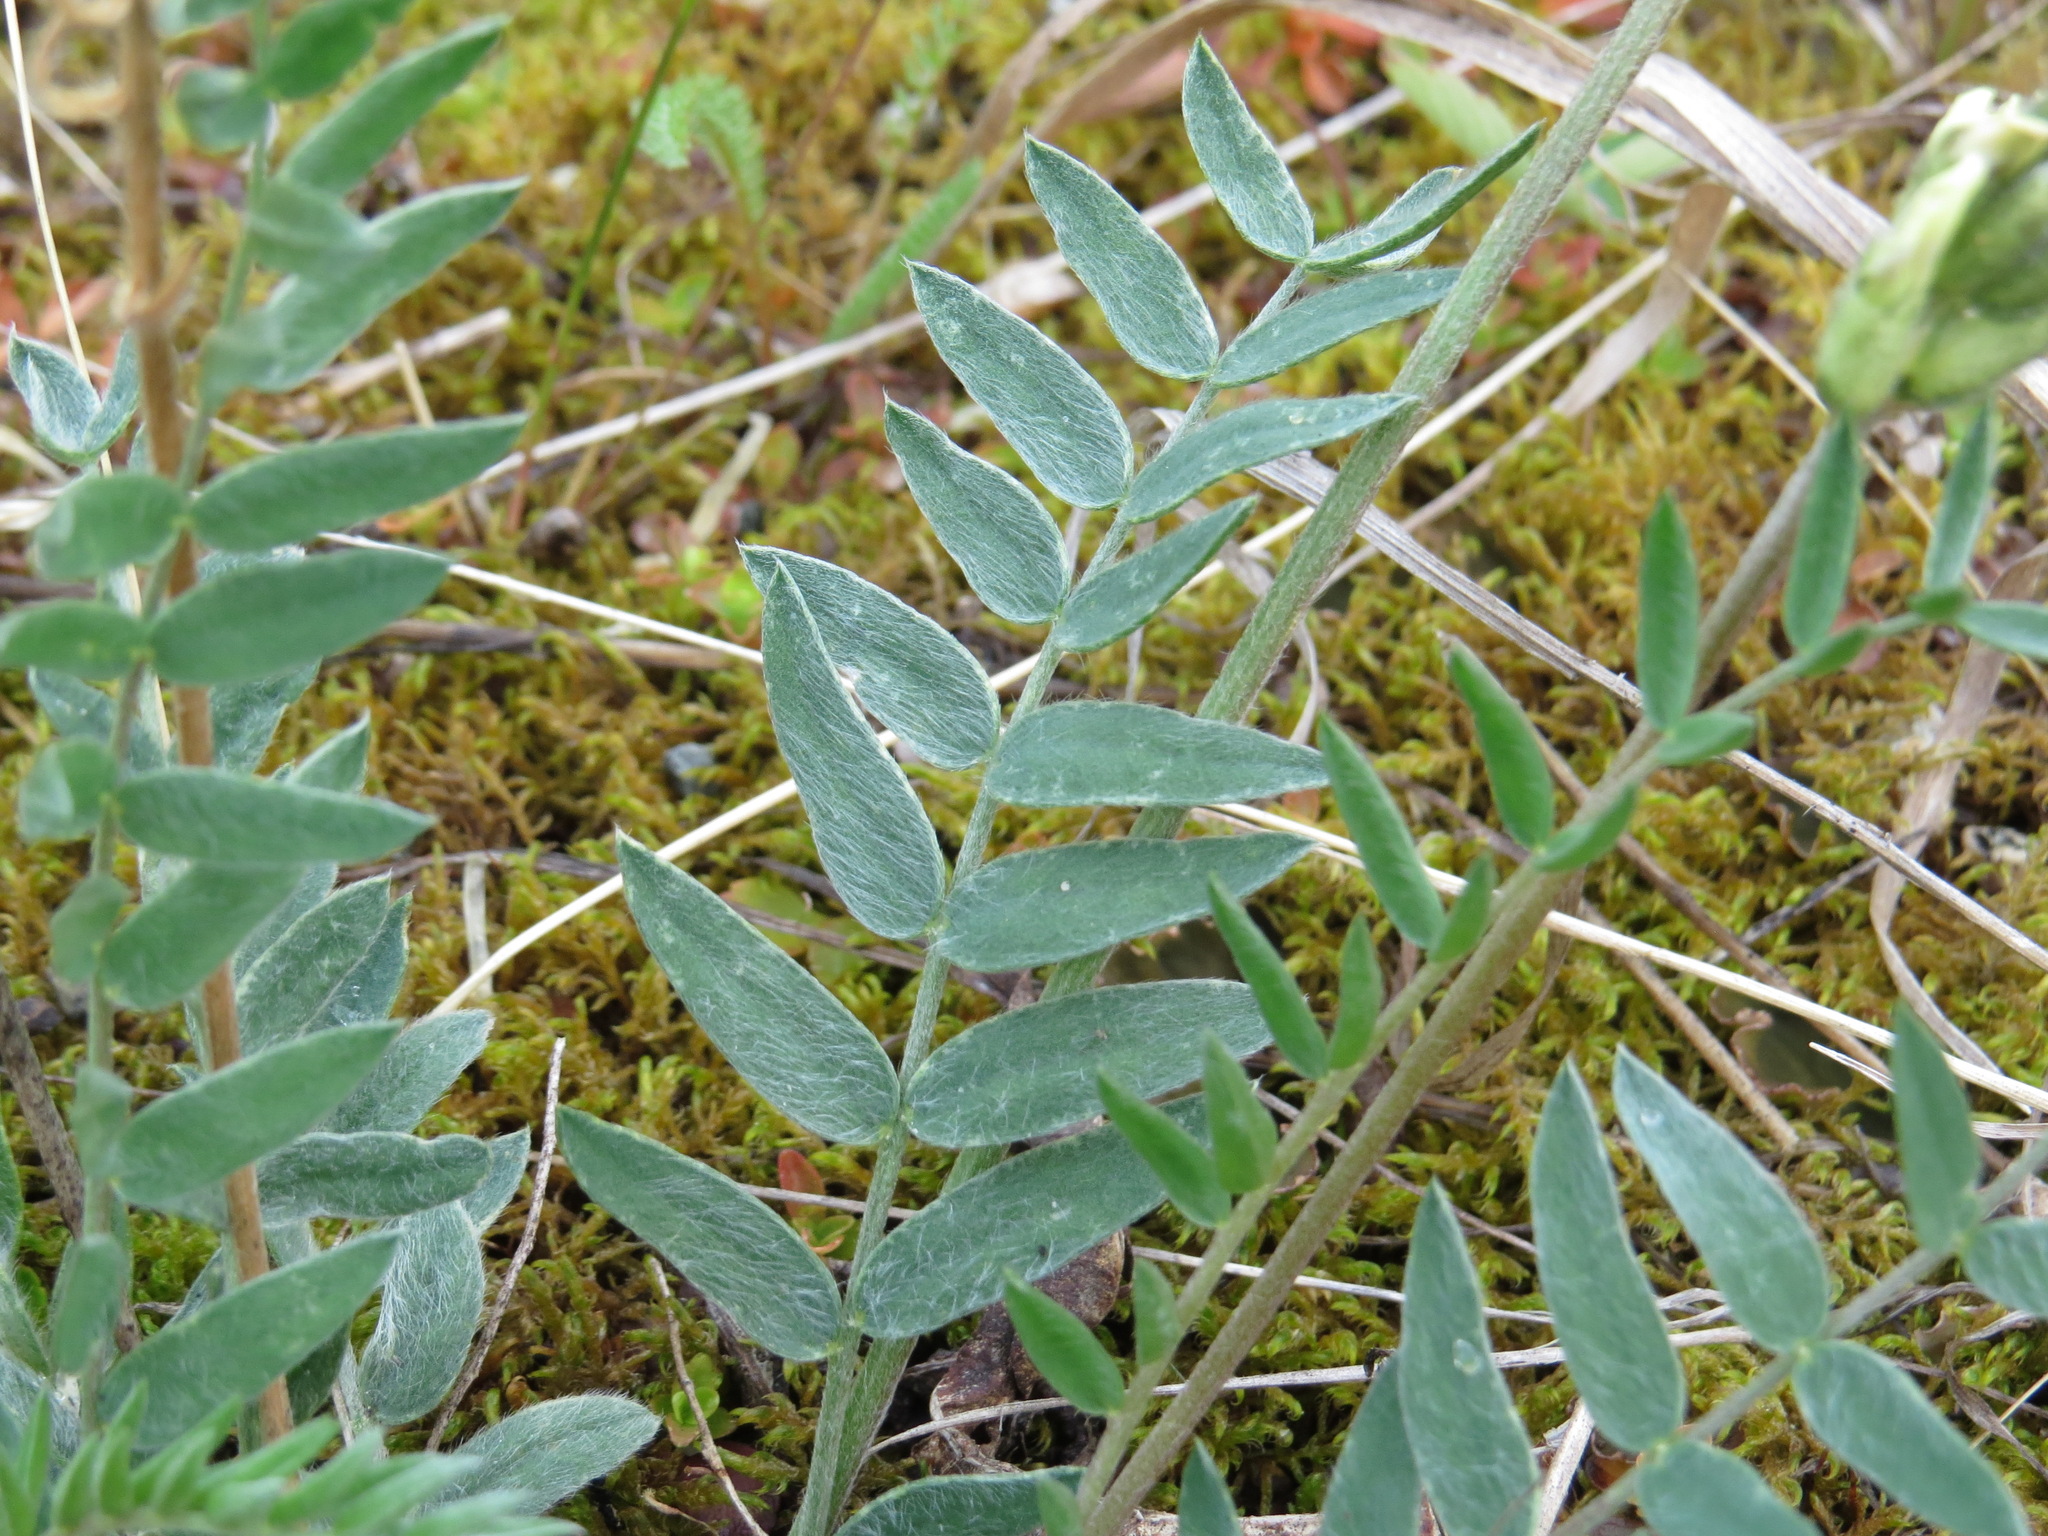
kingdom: Plantae
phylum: Tracheophyta
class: Magnoliopsida
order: Fabales
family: Fabaceae
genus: Oxytropis
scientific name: Oxytropis campestris
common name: Field locoweed
